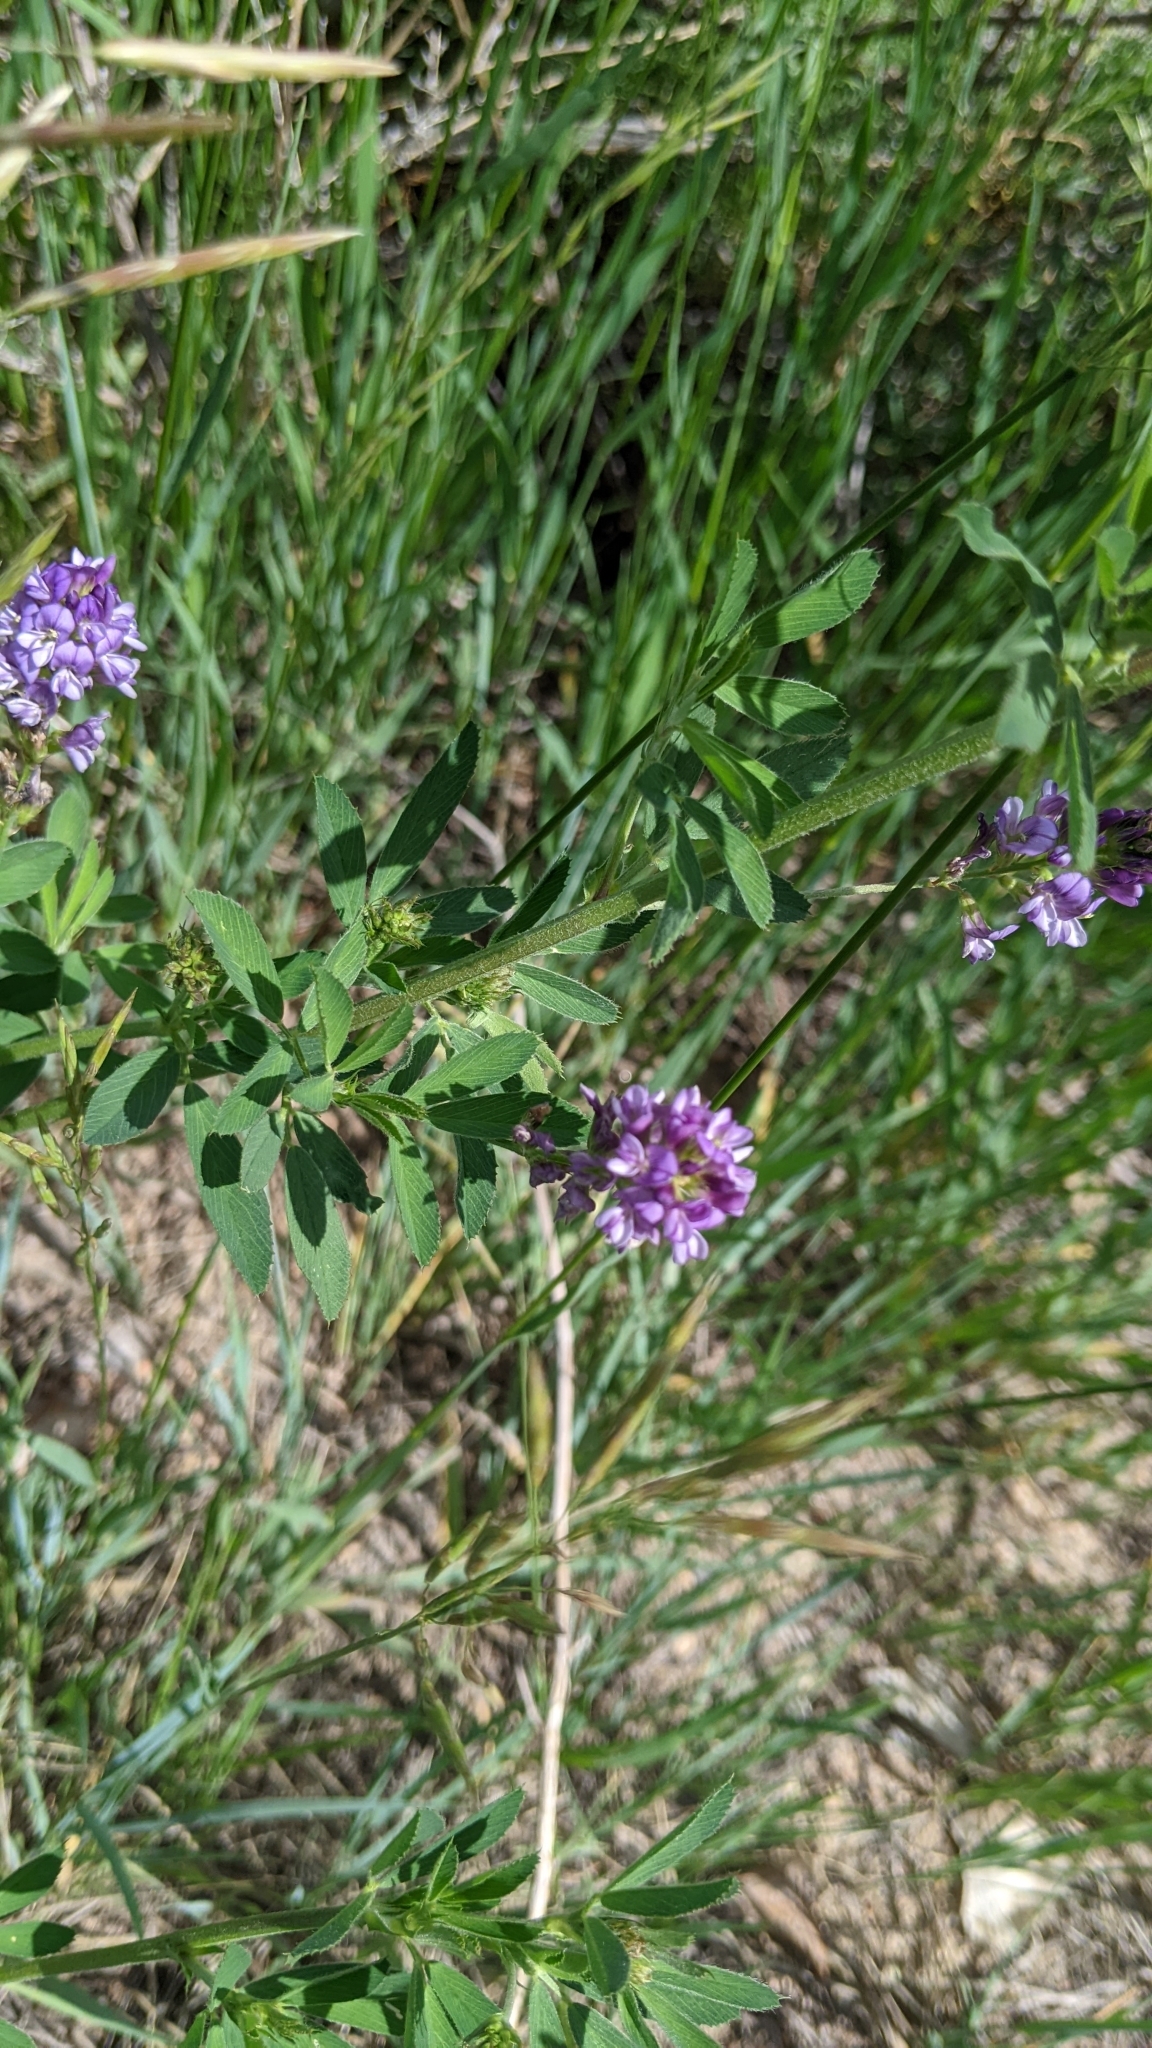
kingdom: Plantae
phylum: Tracheophyta
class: Magnoliopsida
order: Fabales
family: Fabaceae
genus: Medicago
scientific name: Medicago sativa
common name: Alfalfa
